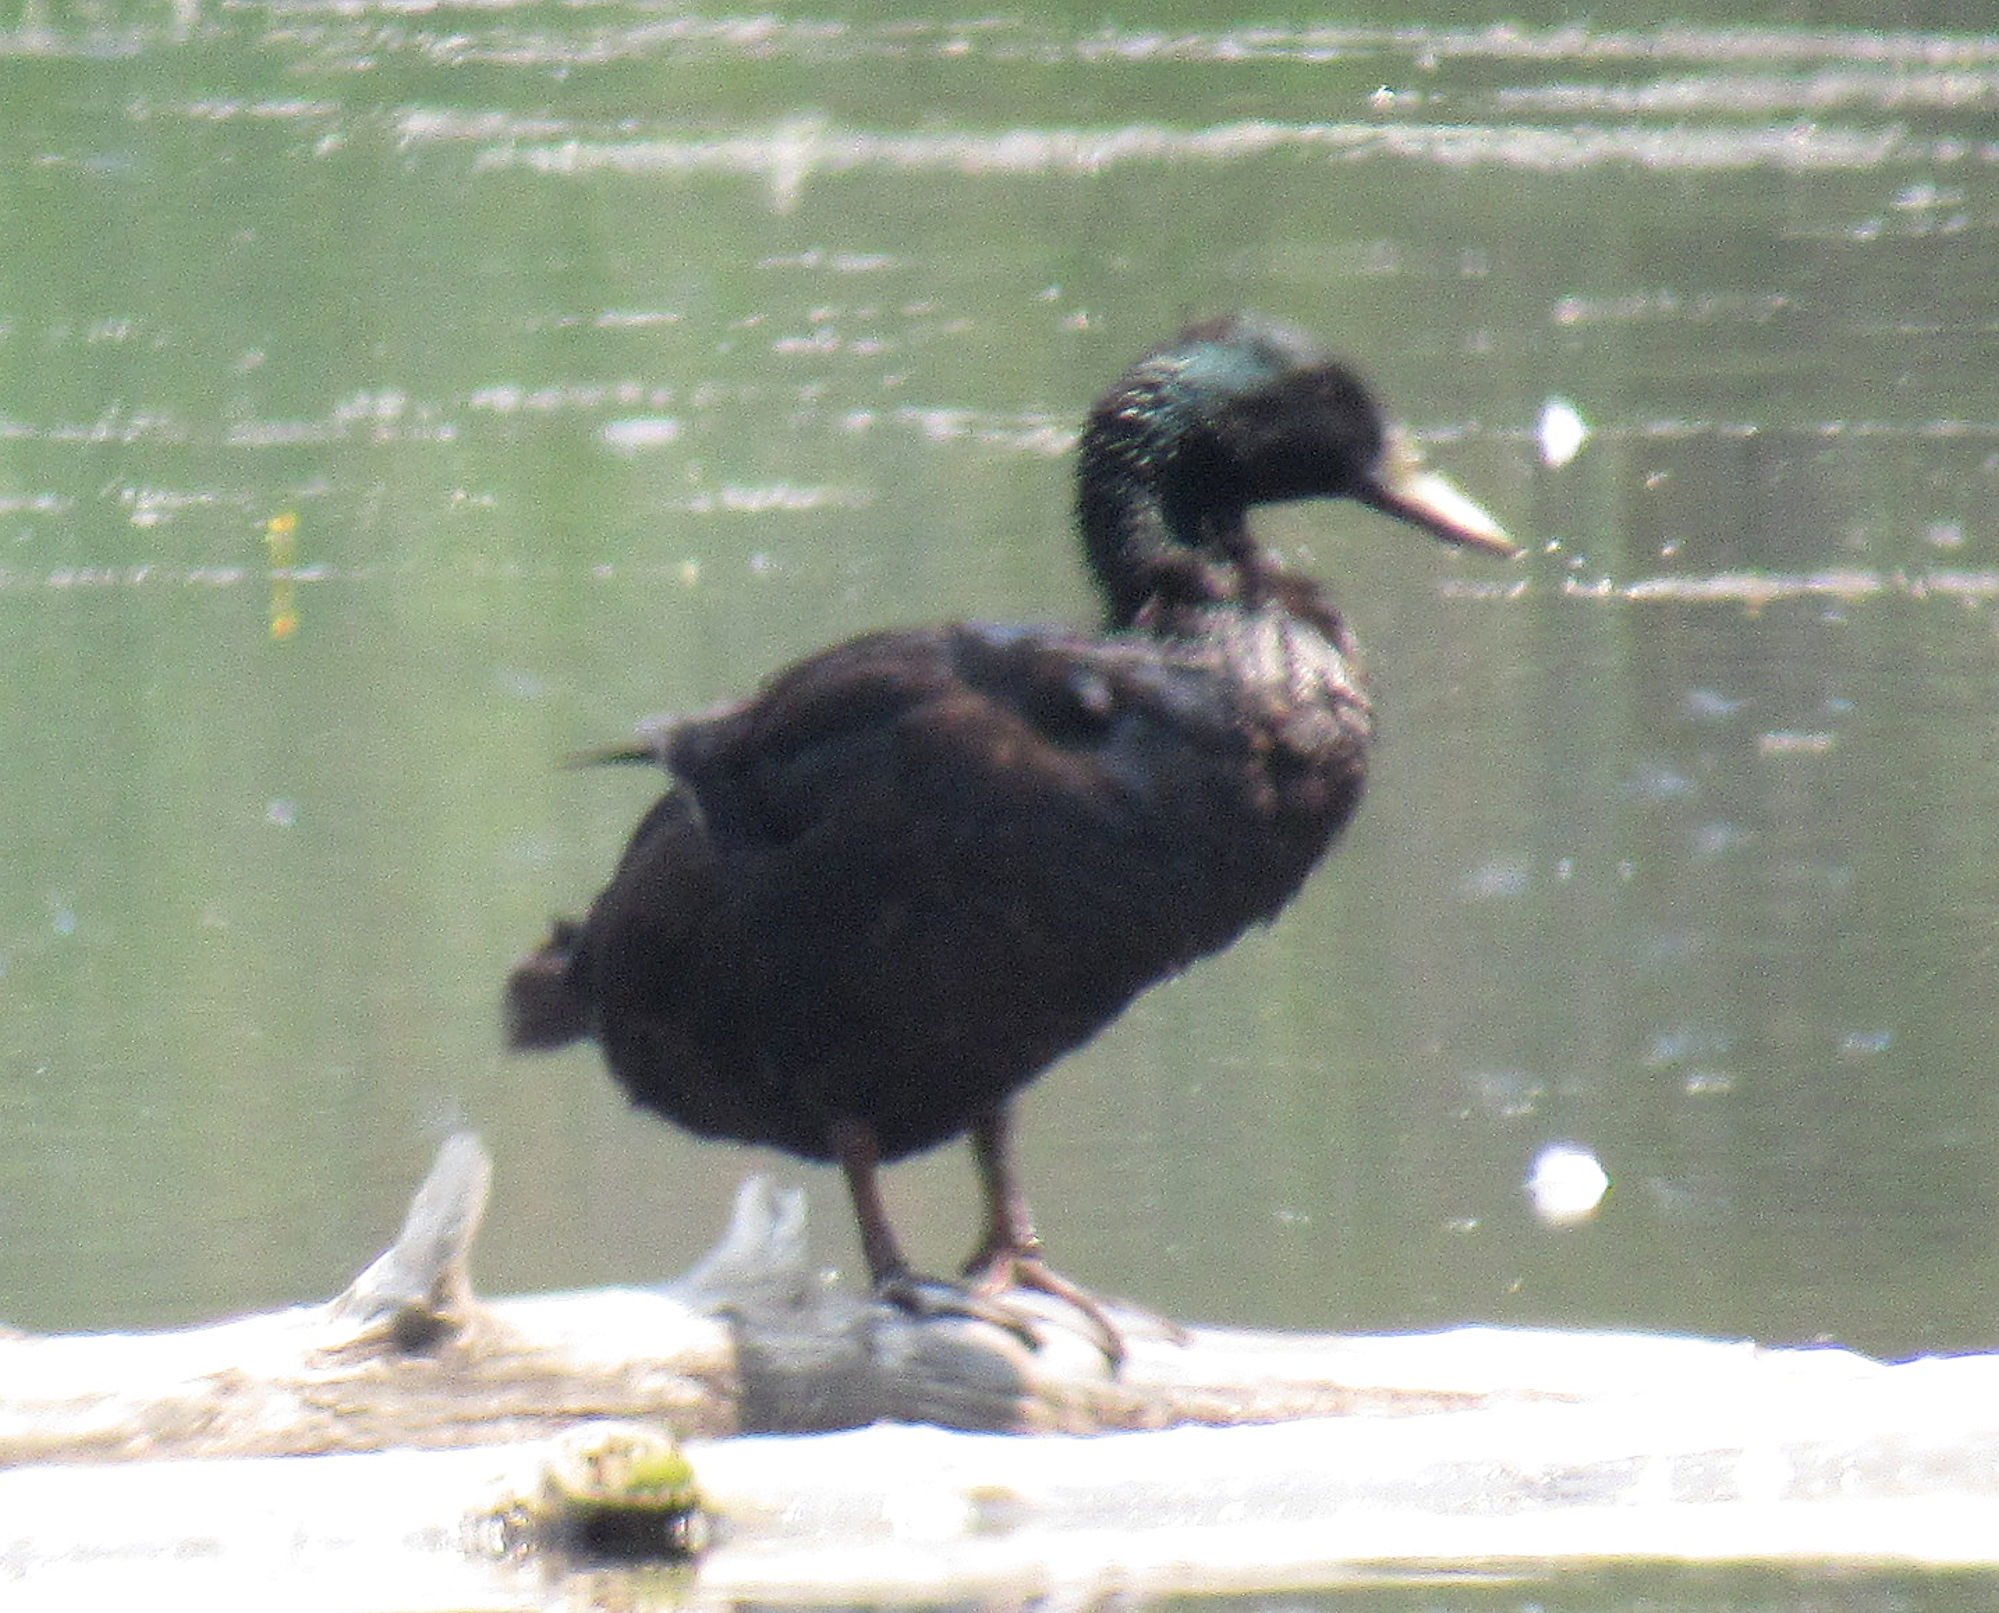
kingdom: Animalia
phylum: Chordata
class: Aves
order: Anseriformes
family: Anatidae
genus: Anas
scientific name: Anas platyrhynchos
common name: Mallard
